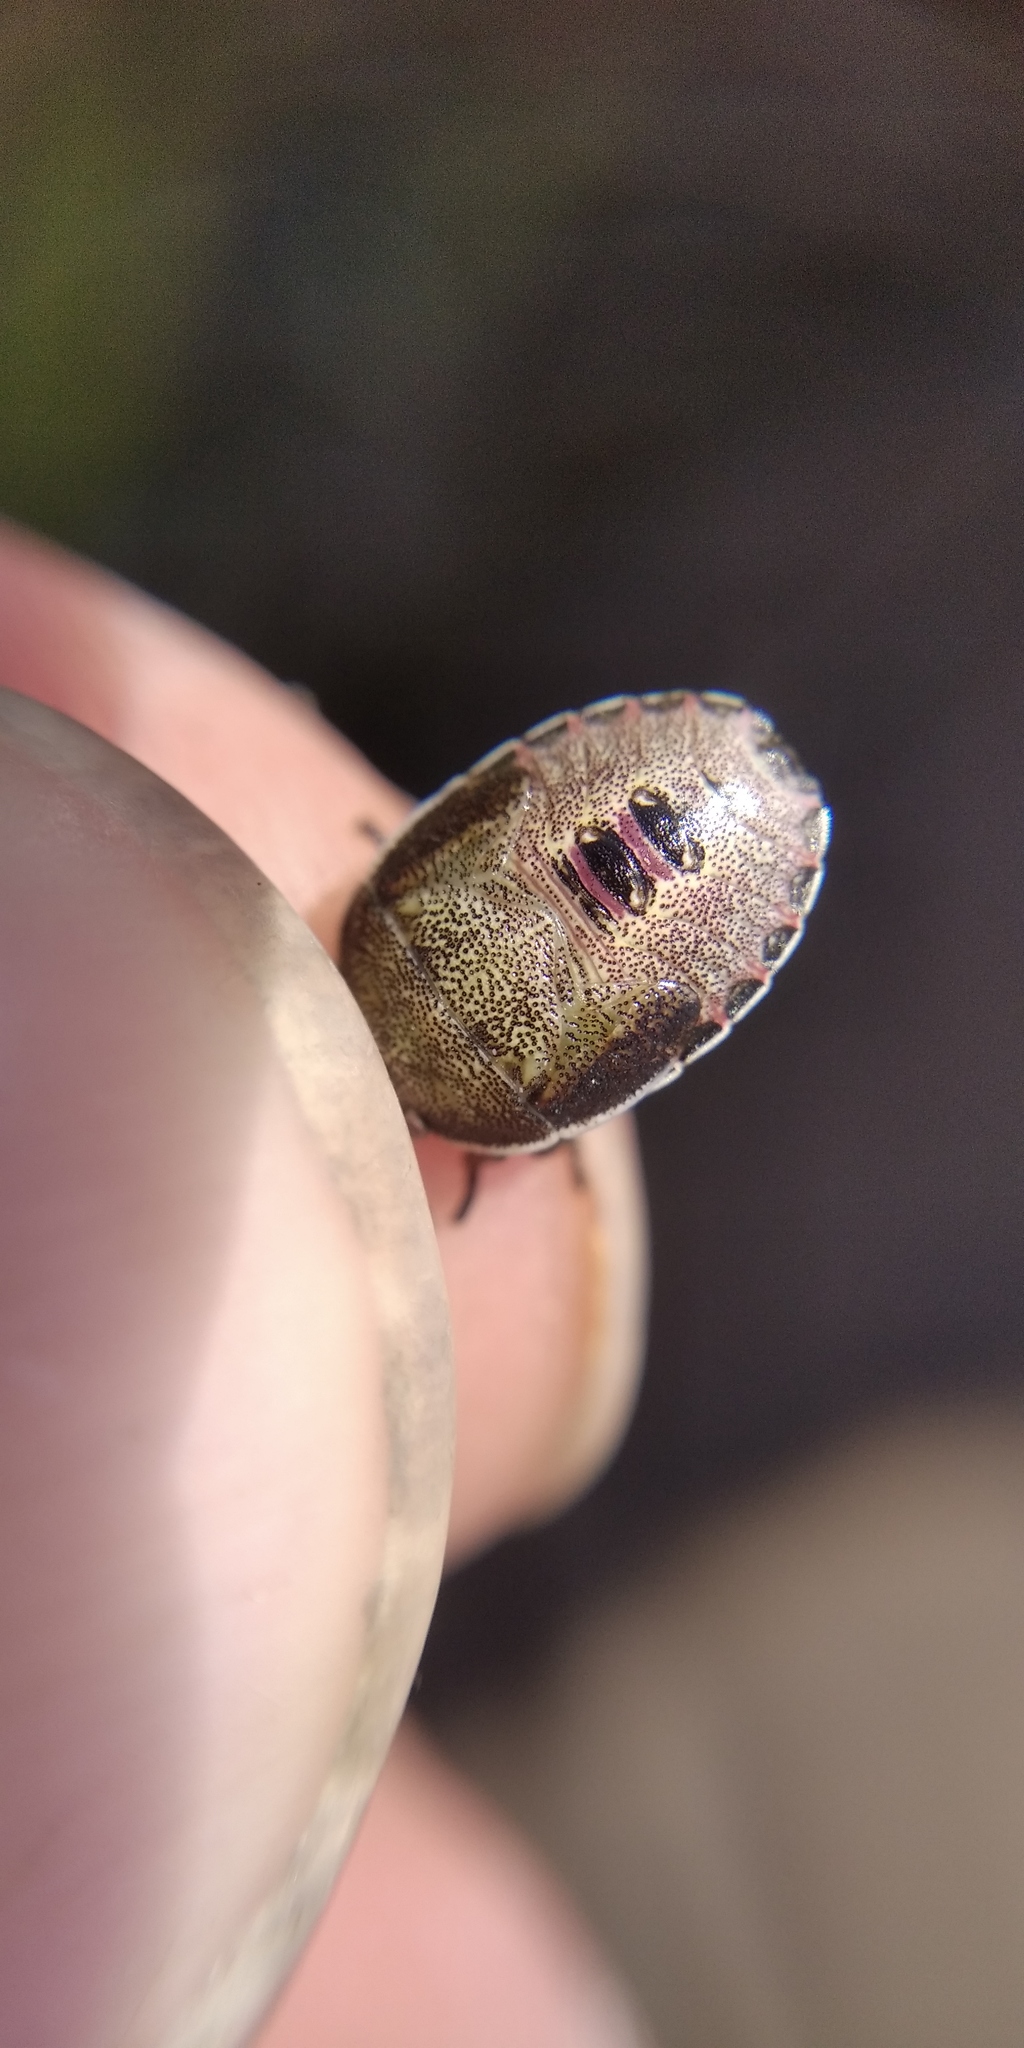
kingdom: Animalia
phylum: Arthropoda
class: Insecta
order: Hemiptera
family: Pentatomidae
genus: Piezodorus
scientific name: Piezodorus lituratus
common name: Stink bug
